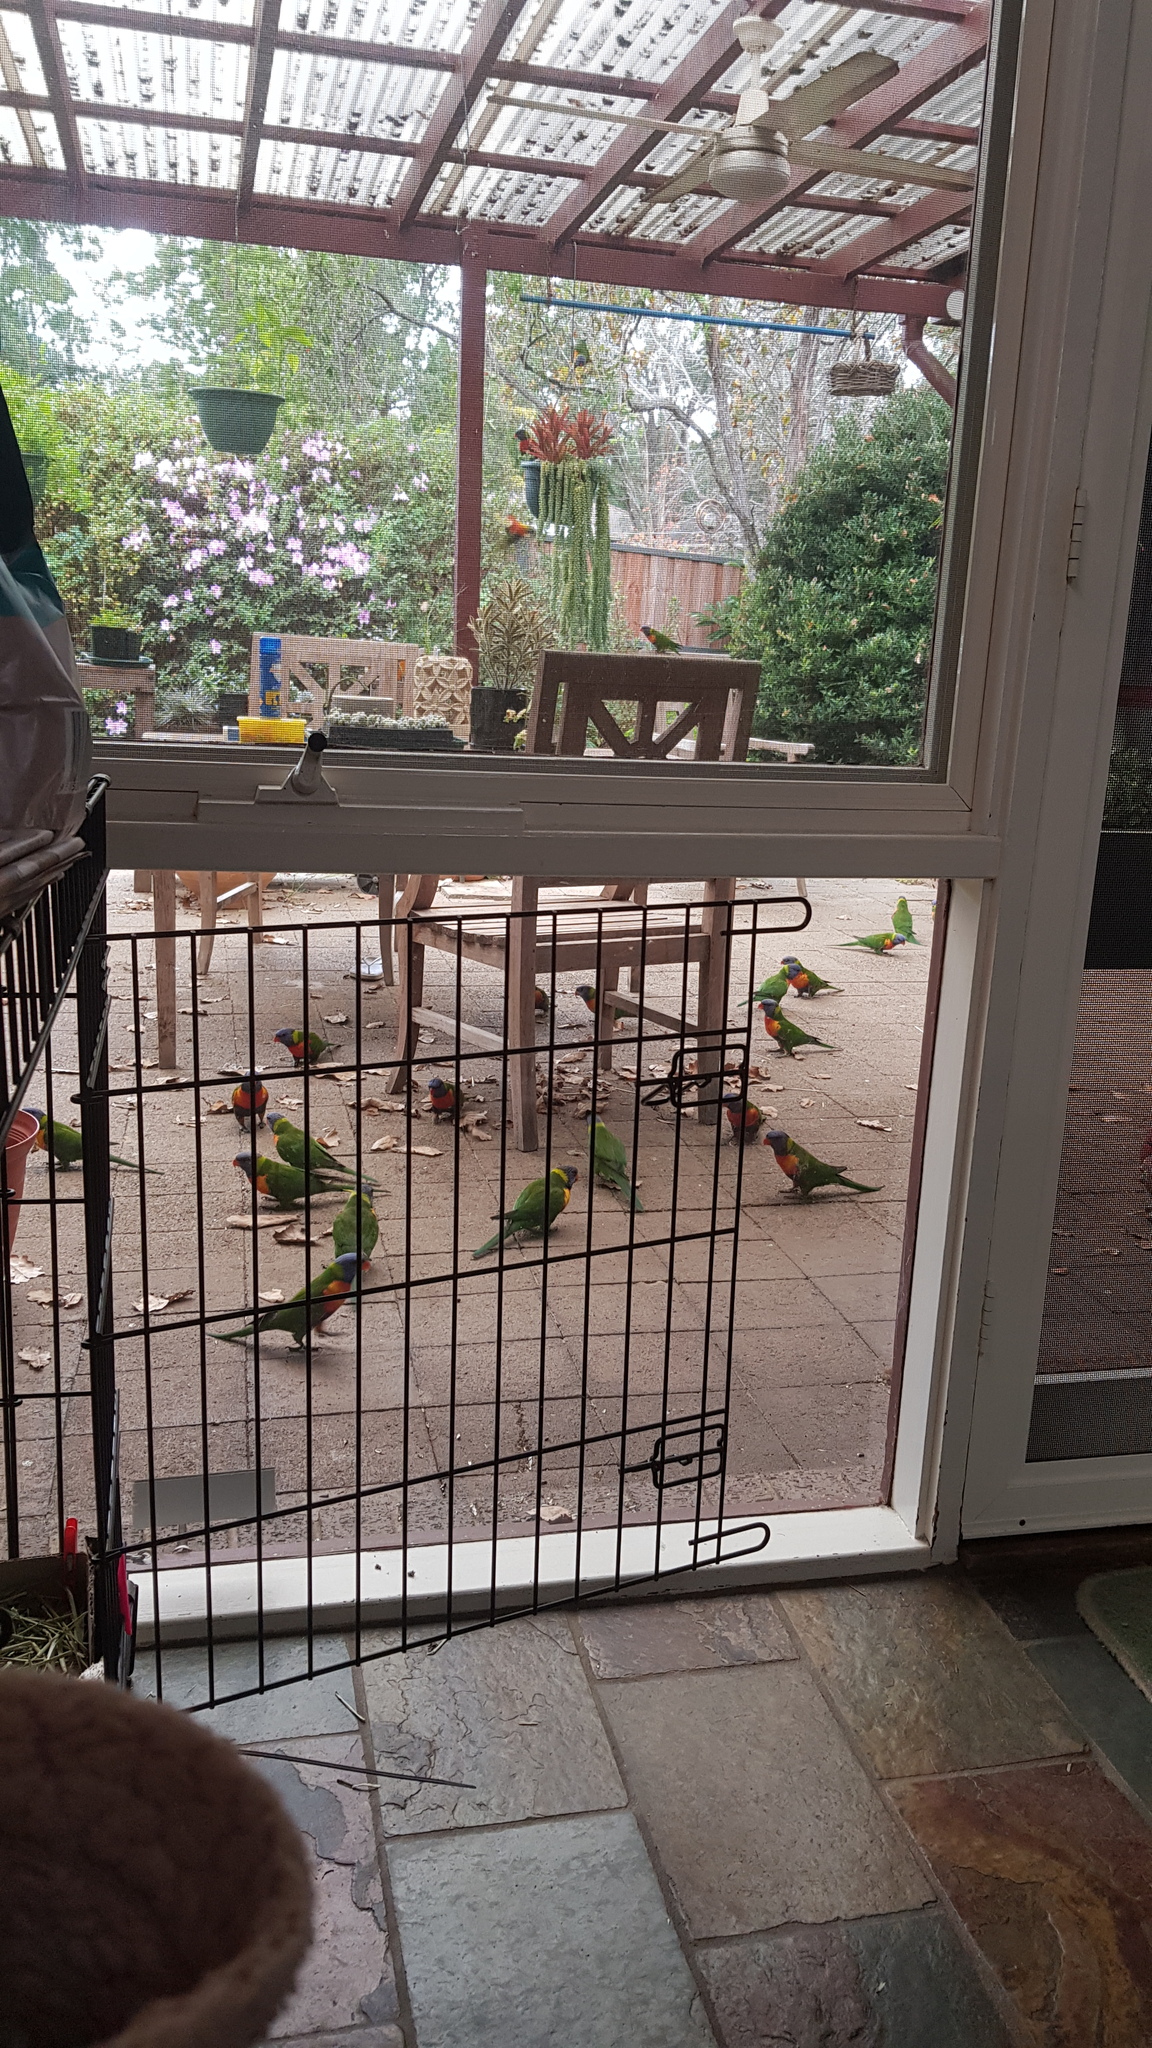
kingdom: Animalia
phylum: Chordata
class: Aves
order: Psittaciformes
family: Psittacidae
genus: Trichoglossus
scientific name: Trichoglossus haematodus
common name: Coconut lorikeet
